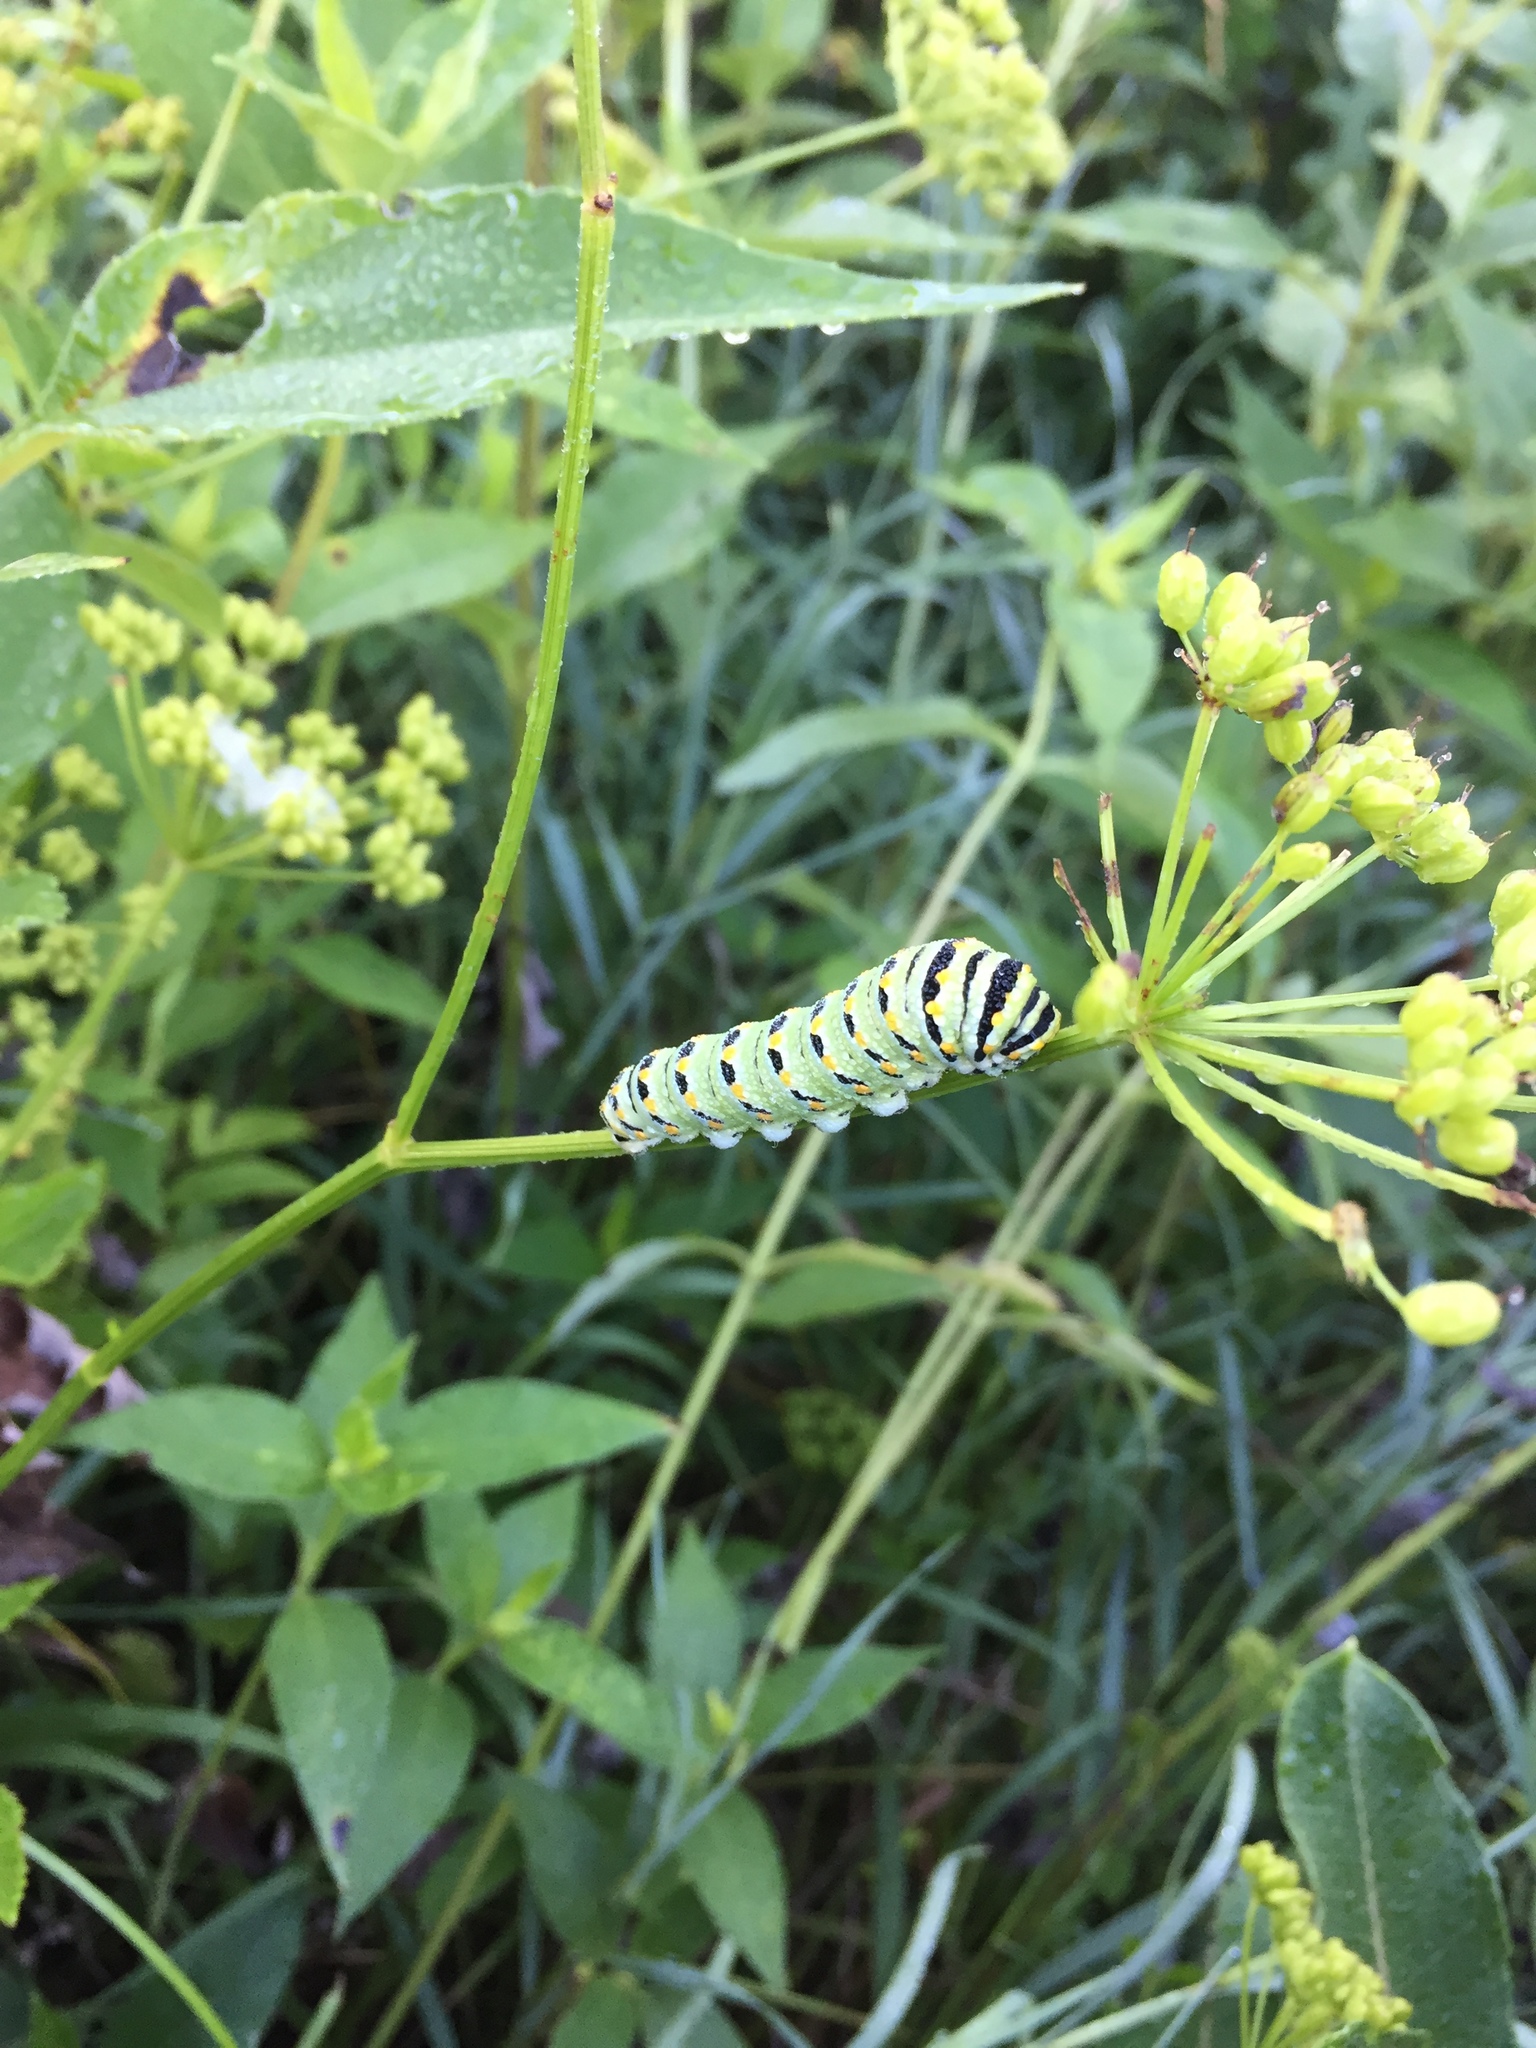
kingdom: Animalia
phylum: Arthropoda
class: Insecta
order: Lepidoptera
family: Papilionidae
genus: Papilio
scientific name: Papilio polyxenes
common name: Black swallowtail
